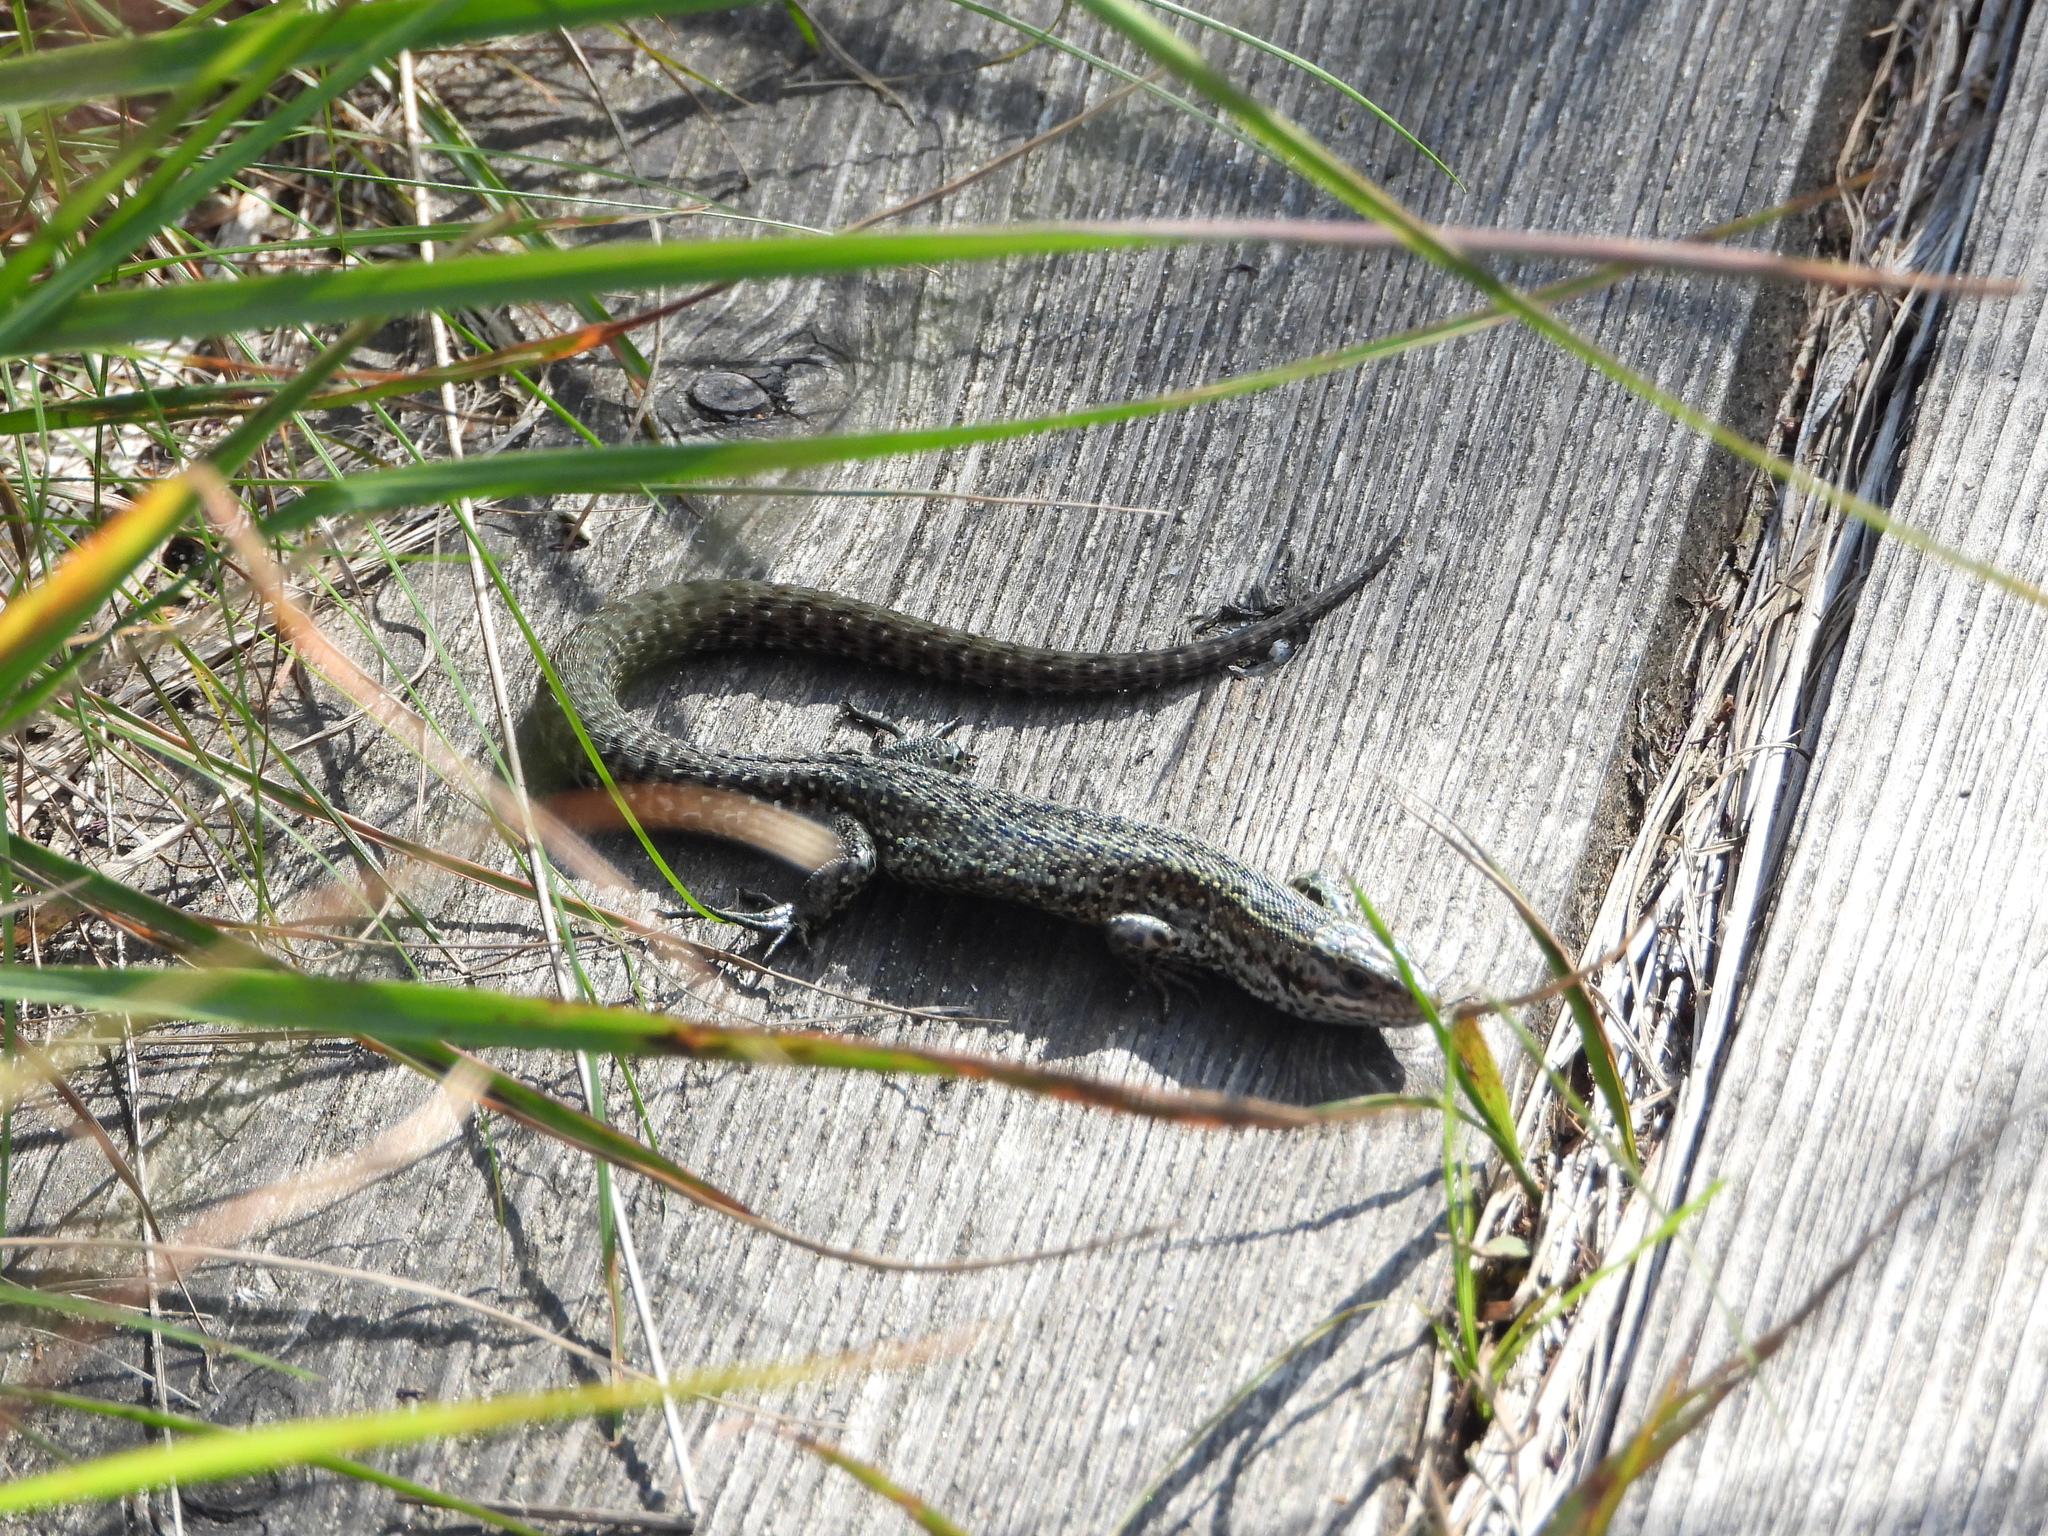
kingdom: Animalia
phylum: Chordata
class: Squamata
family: Lacertidae
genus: Zootoca
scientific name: Zootoca vivipara
